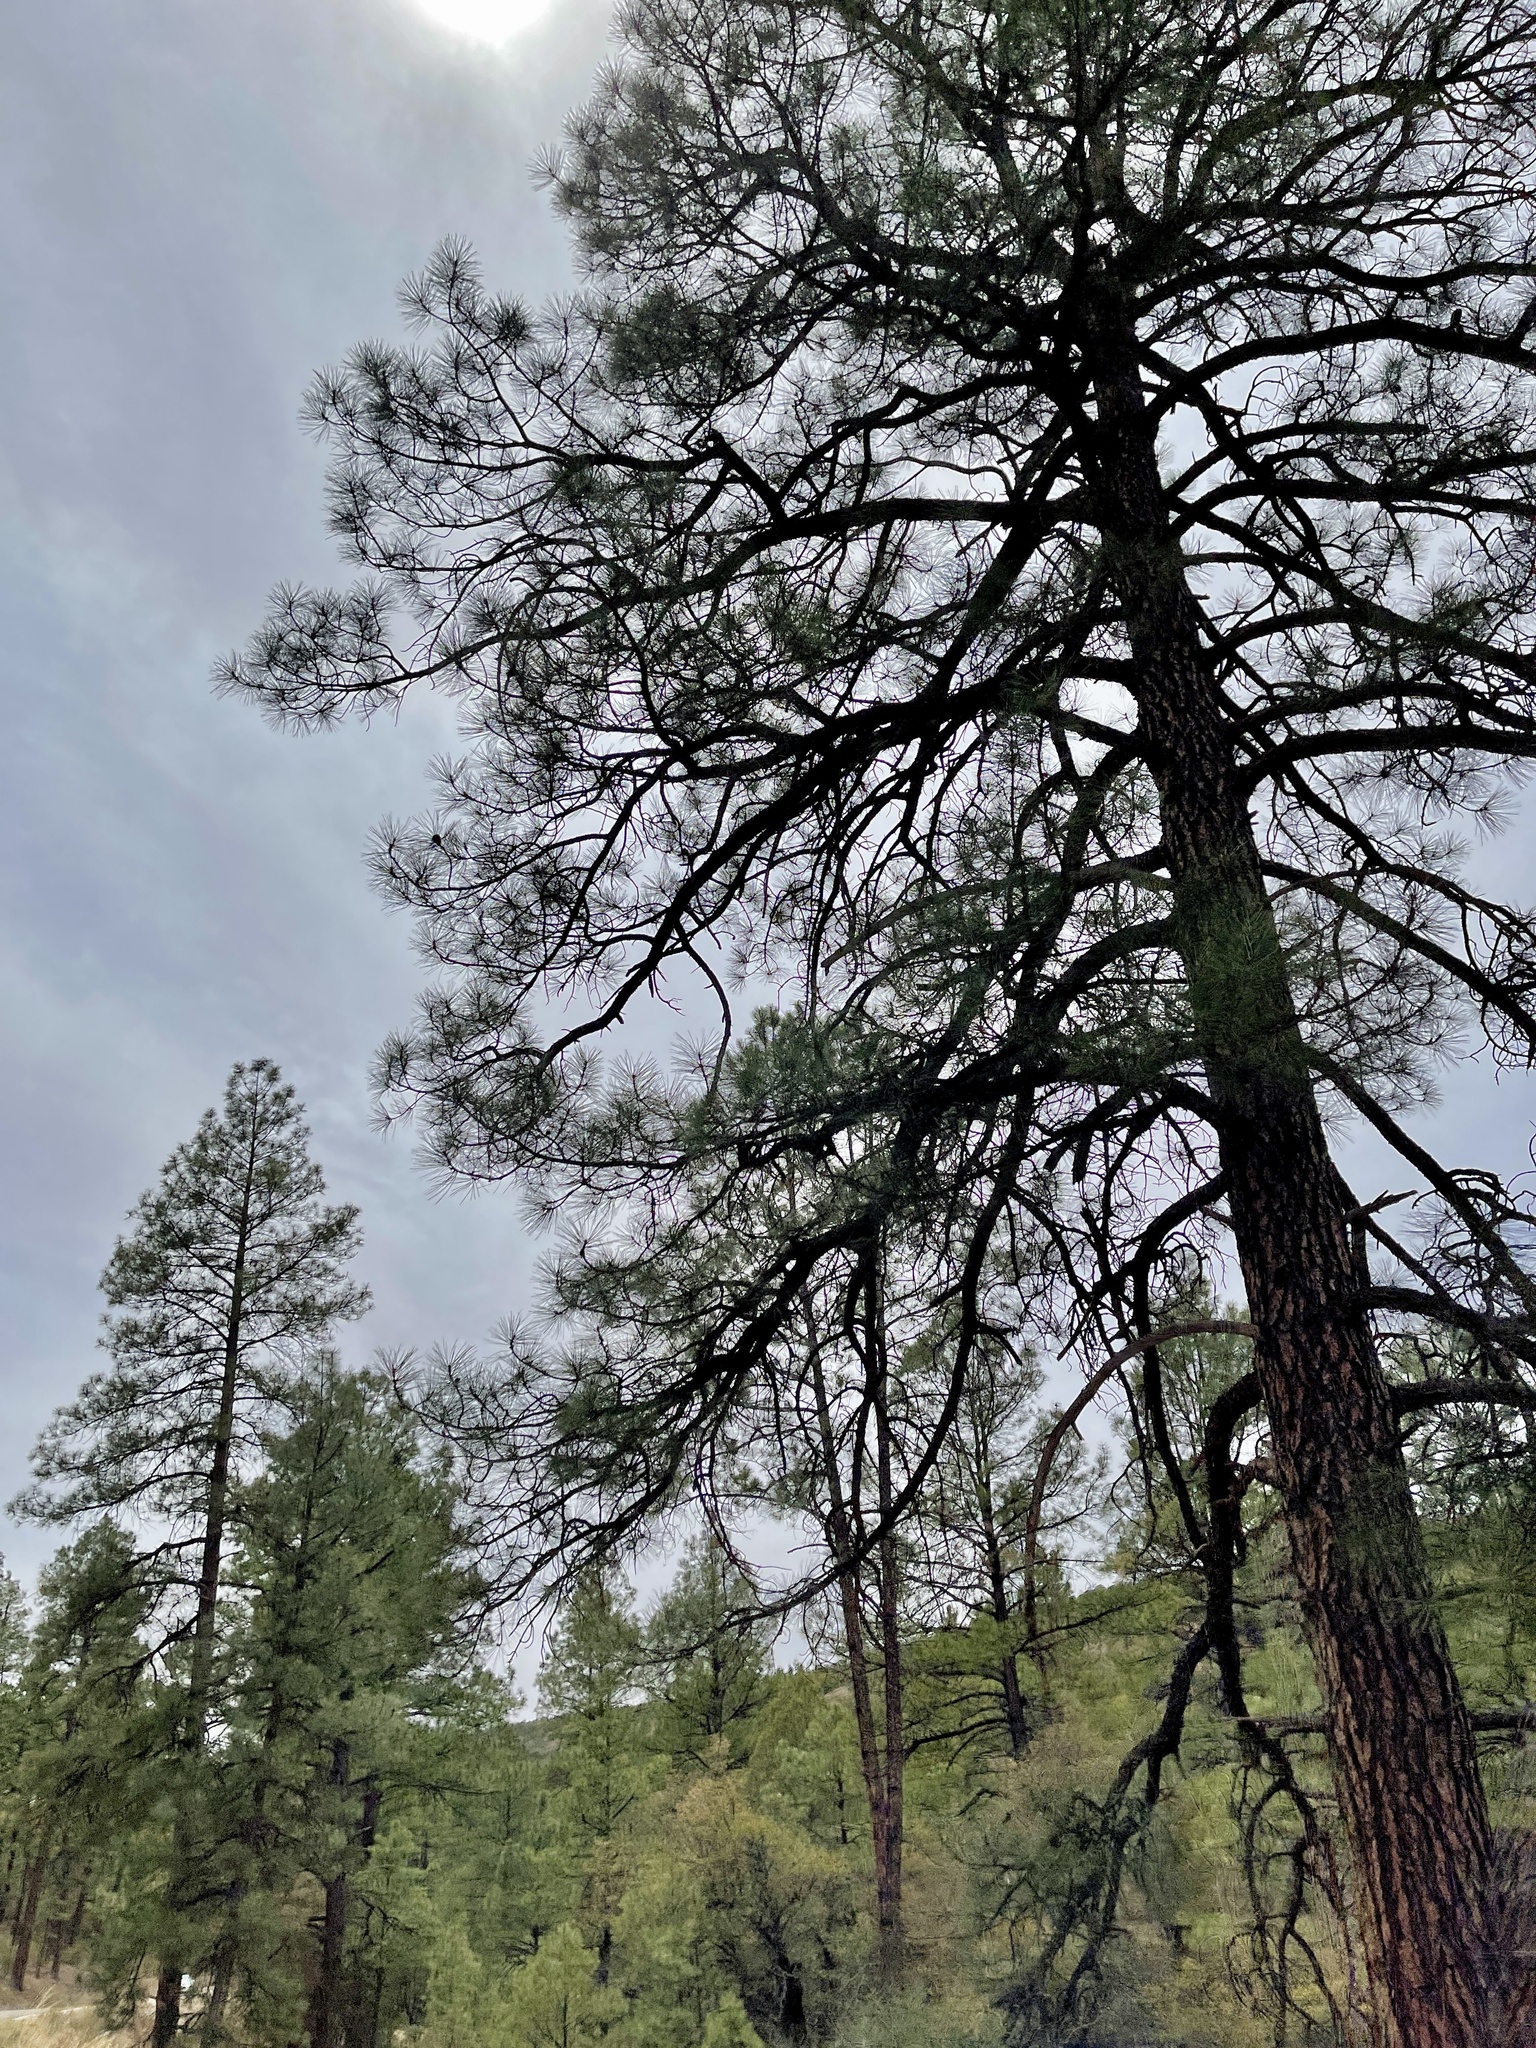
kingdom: Plantae
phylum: Tracheophyta
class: Pinopsida
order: Pinales
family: Pinaceae
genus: Pinus
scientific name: Pinus ponderosa
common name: Western yellow-pine
